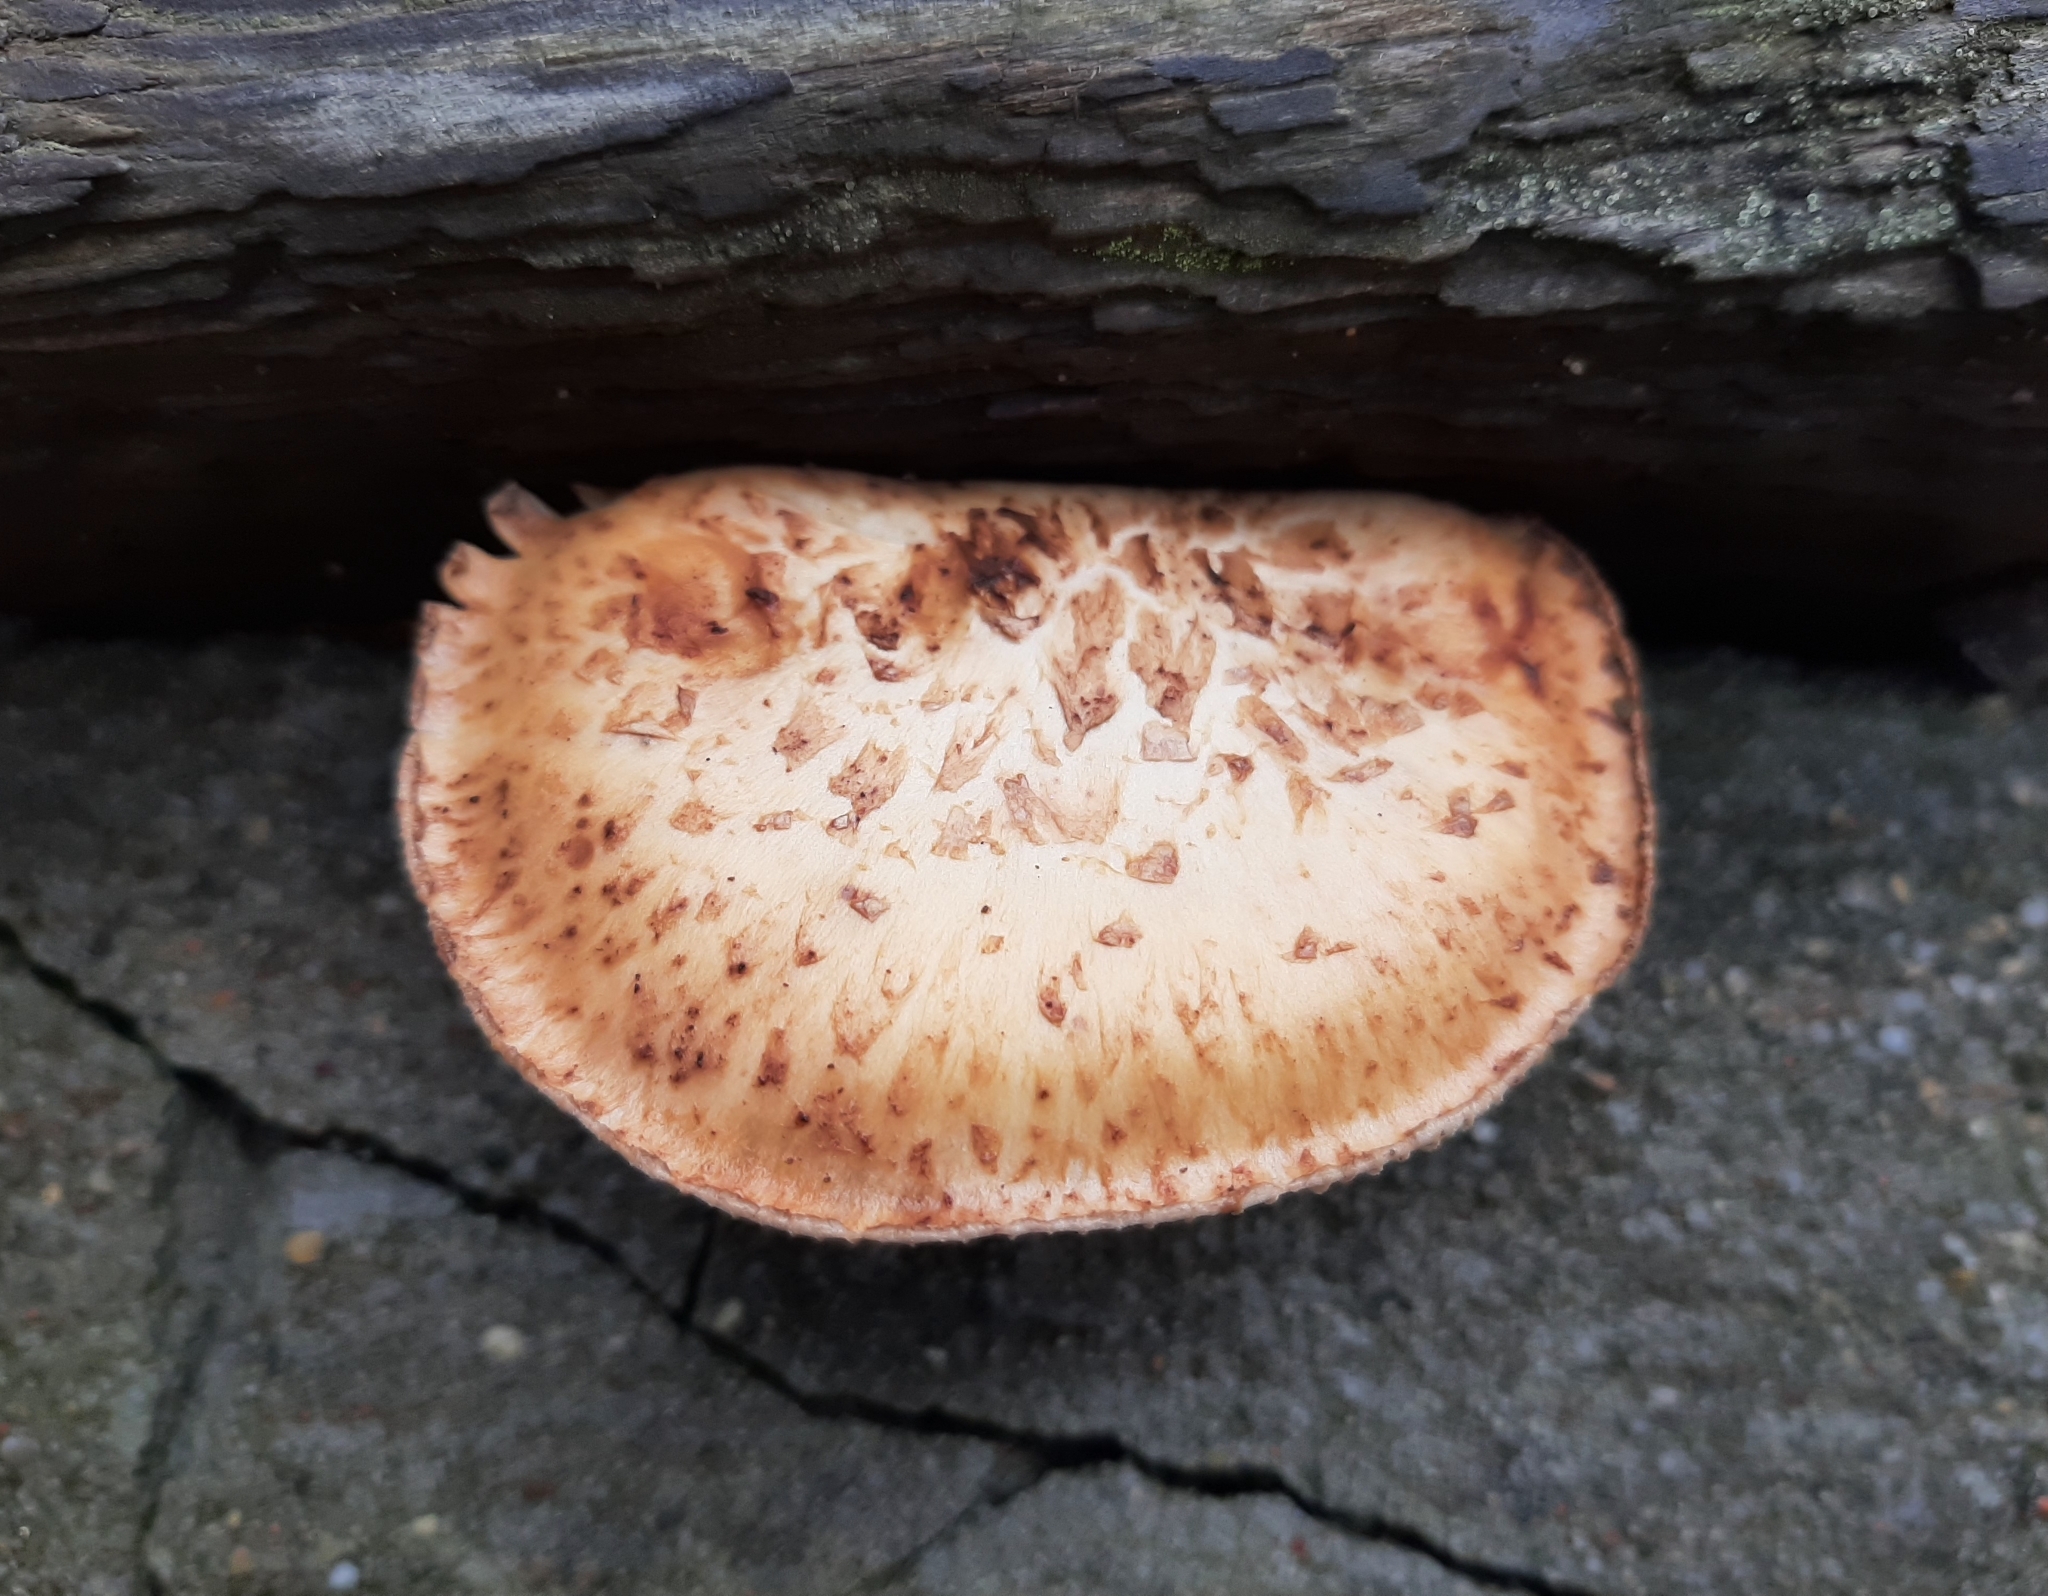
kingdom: Fungi
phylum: Basidiomycota
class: Agaricomycetes
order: Gloeophyllales
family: Gloeophyllaceae
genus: Neolentinus
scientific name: Neolentinus lepideus
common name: Scaly sawgill
